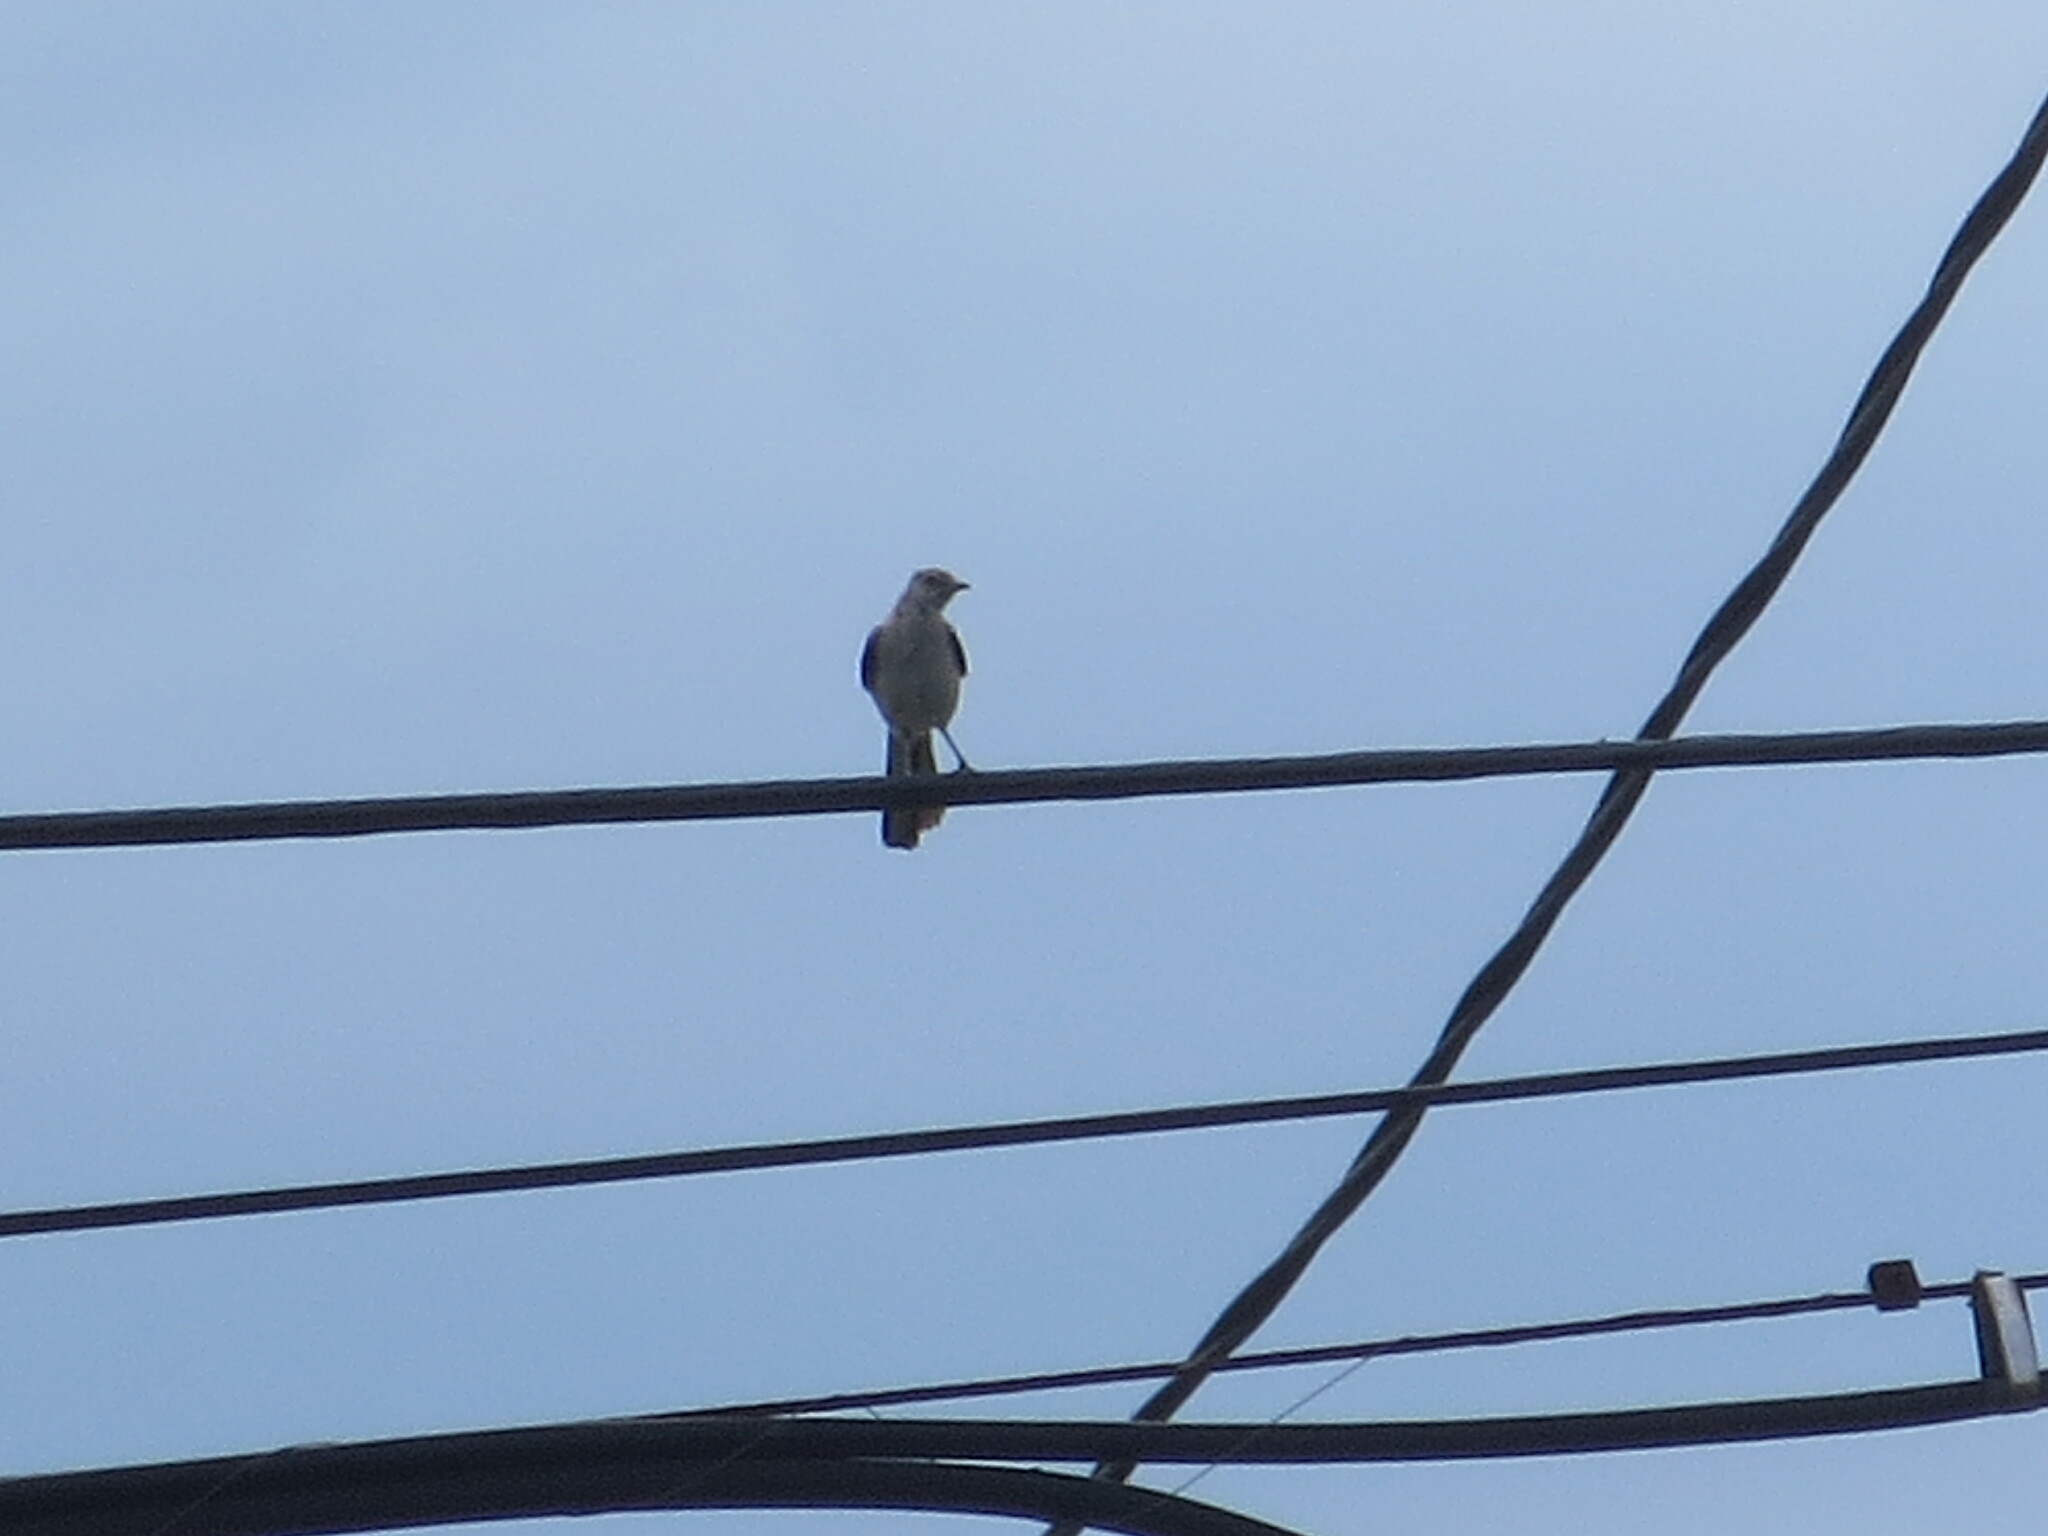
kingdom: Animalia
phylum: Chordata
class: Aves
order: Passeriformes
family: Mimidae
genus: Mimus
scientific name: Mimus polyglottos
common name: Northern mockingbird
